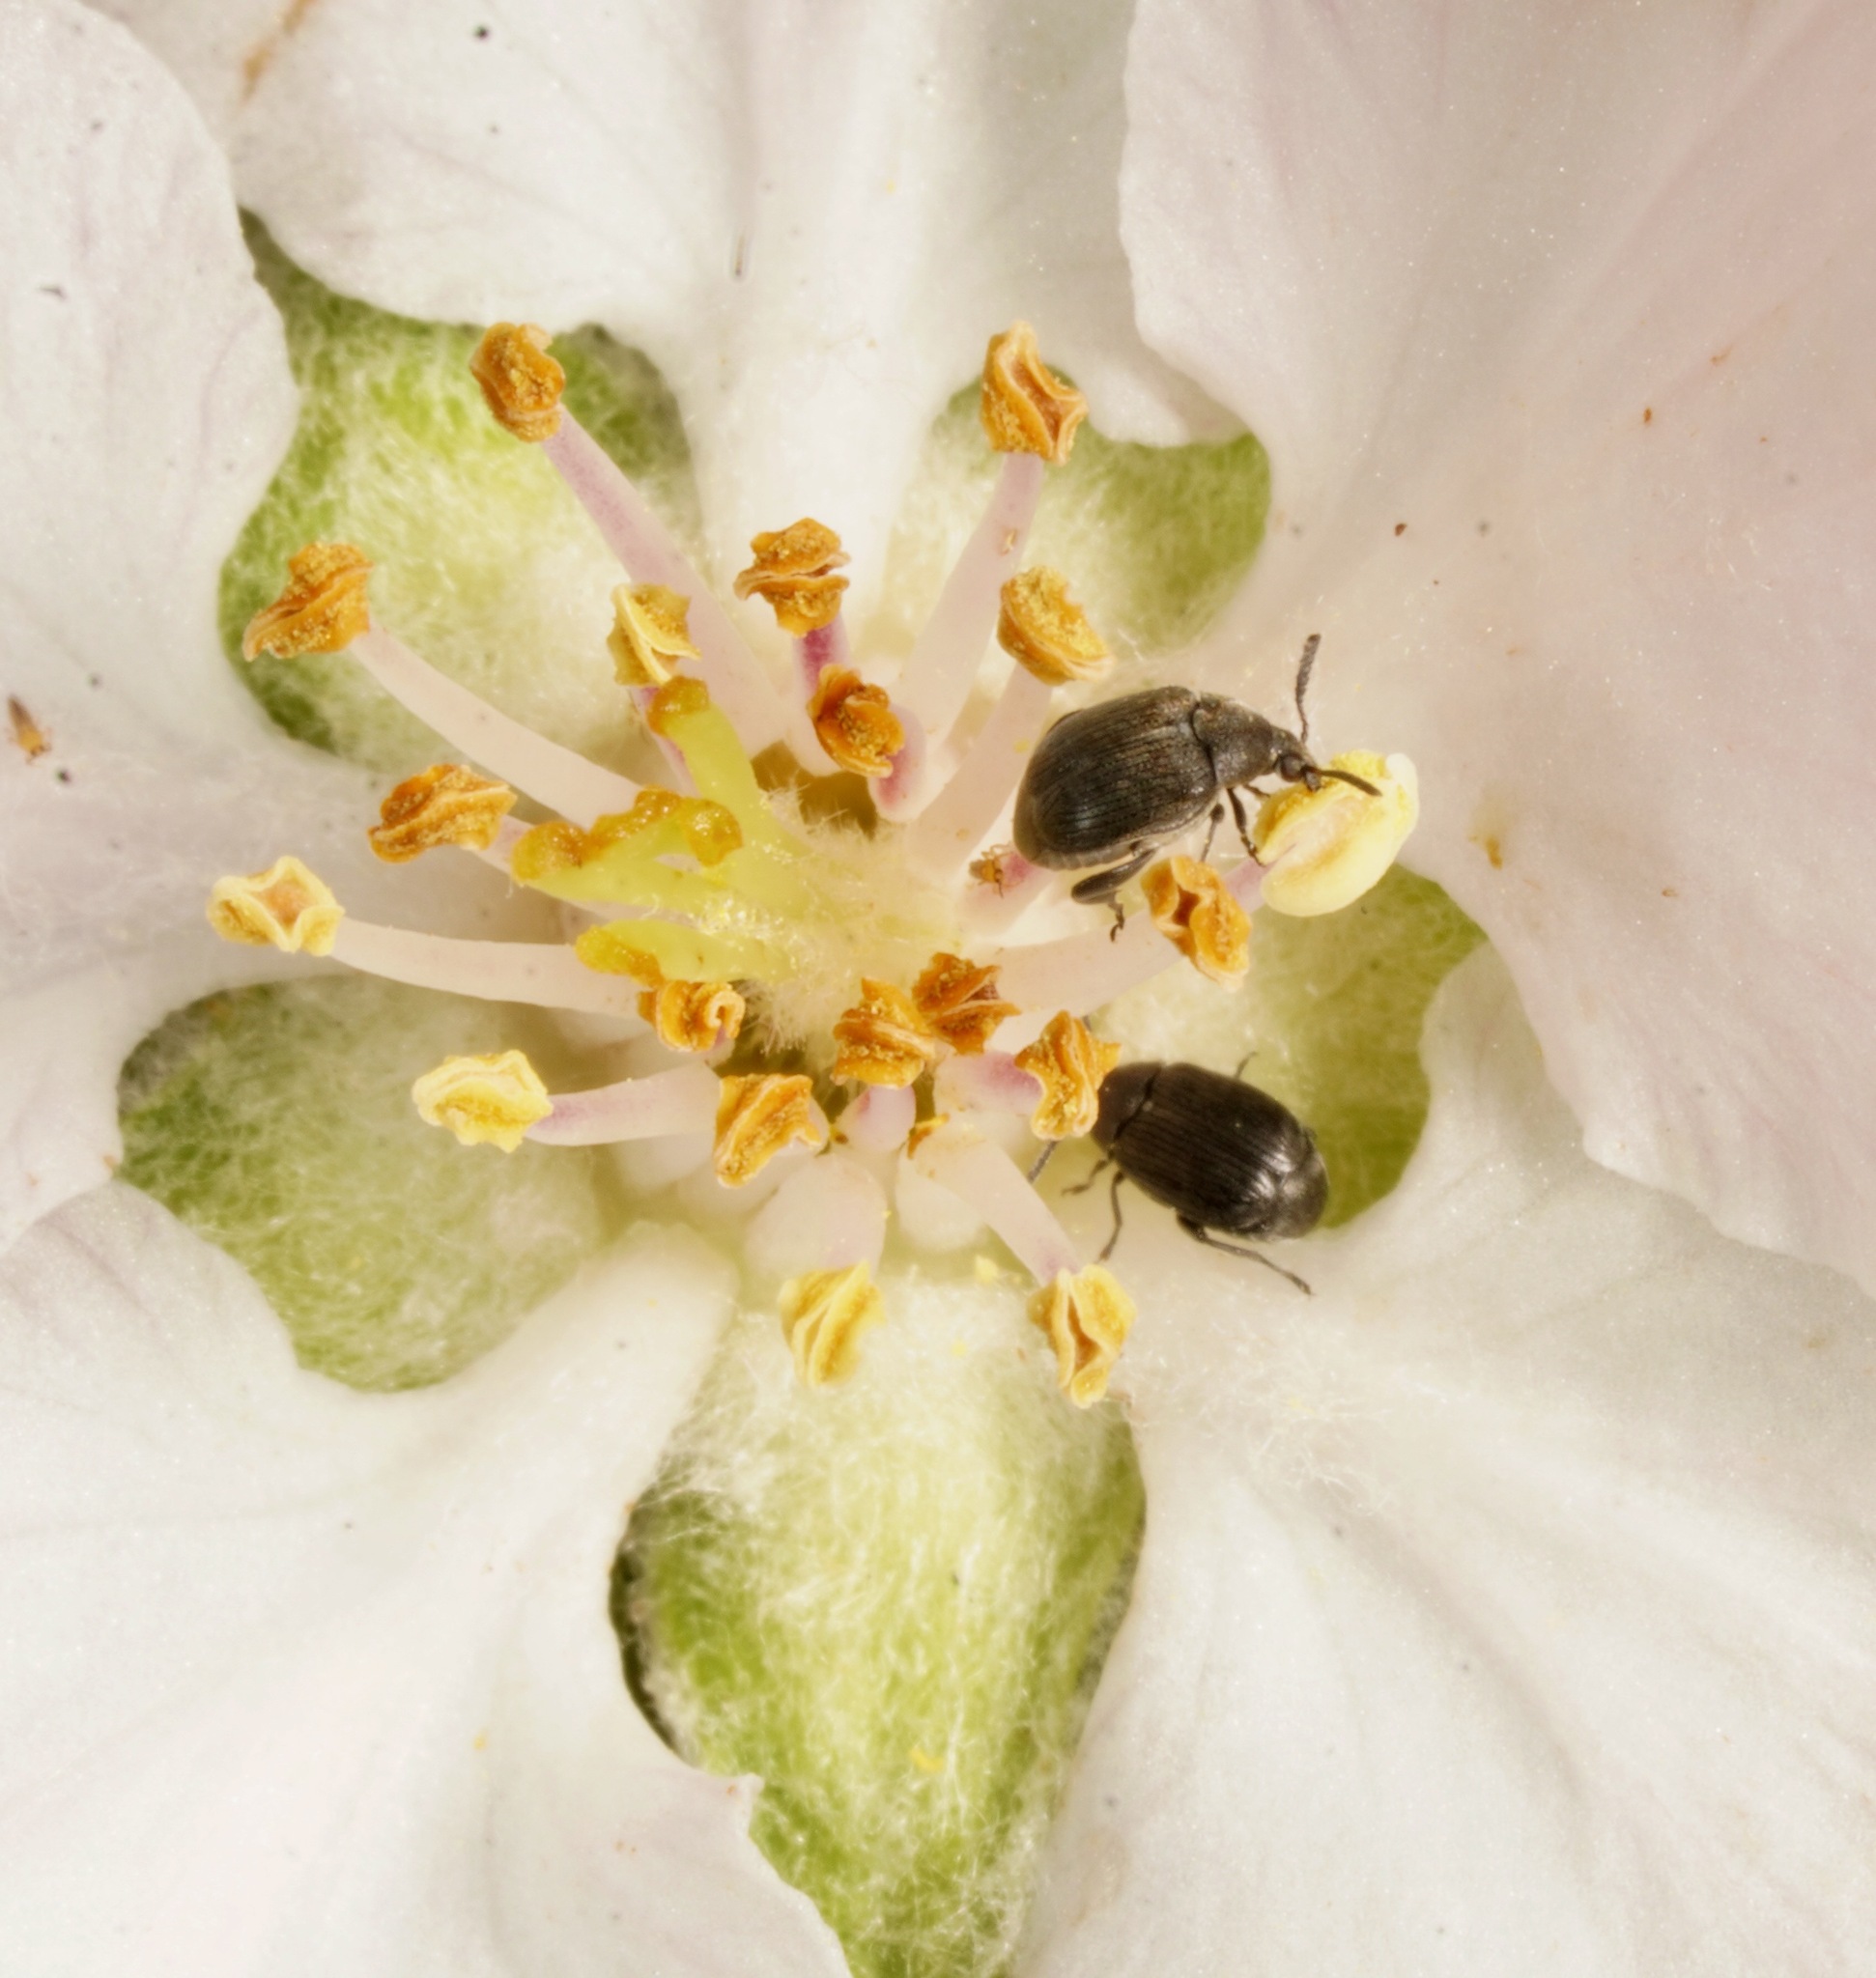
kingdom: Animalia
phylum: Arthropoda
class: Insecta
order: Coleoptera
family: Chrysomelidae
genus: Bruchidius
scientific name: Bruchidius villosus
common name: Scotch broom bruchid
